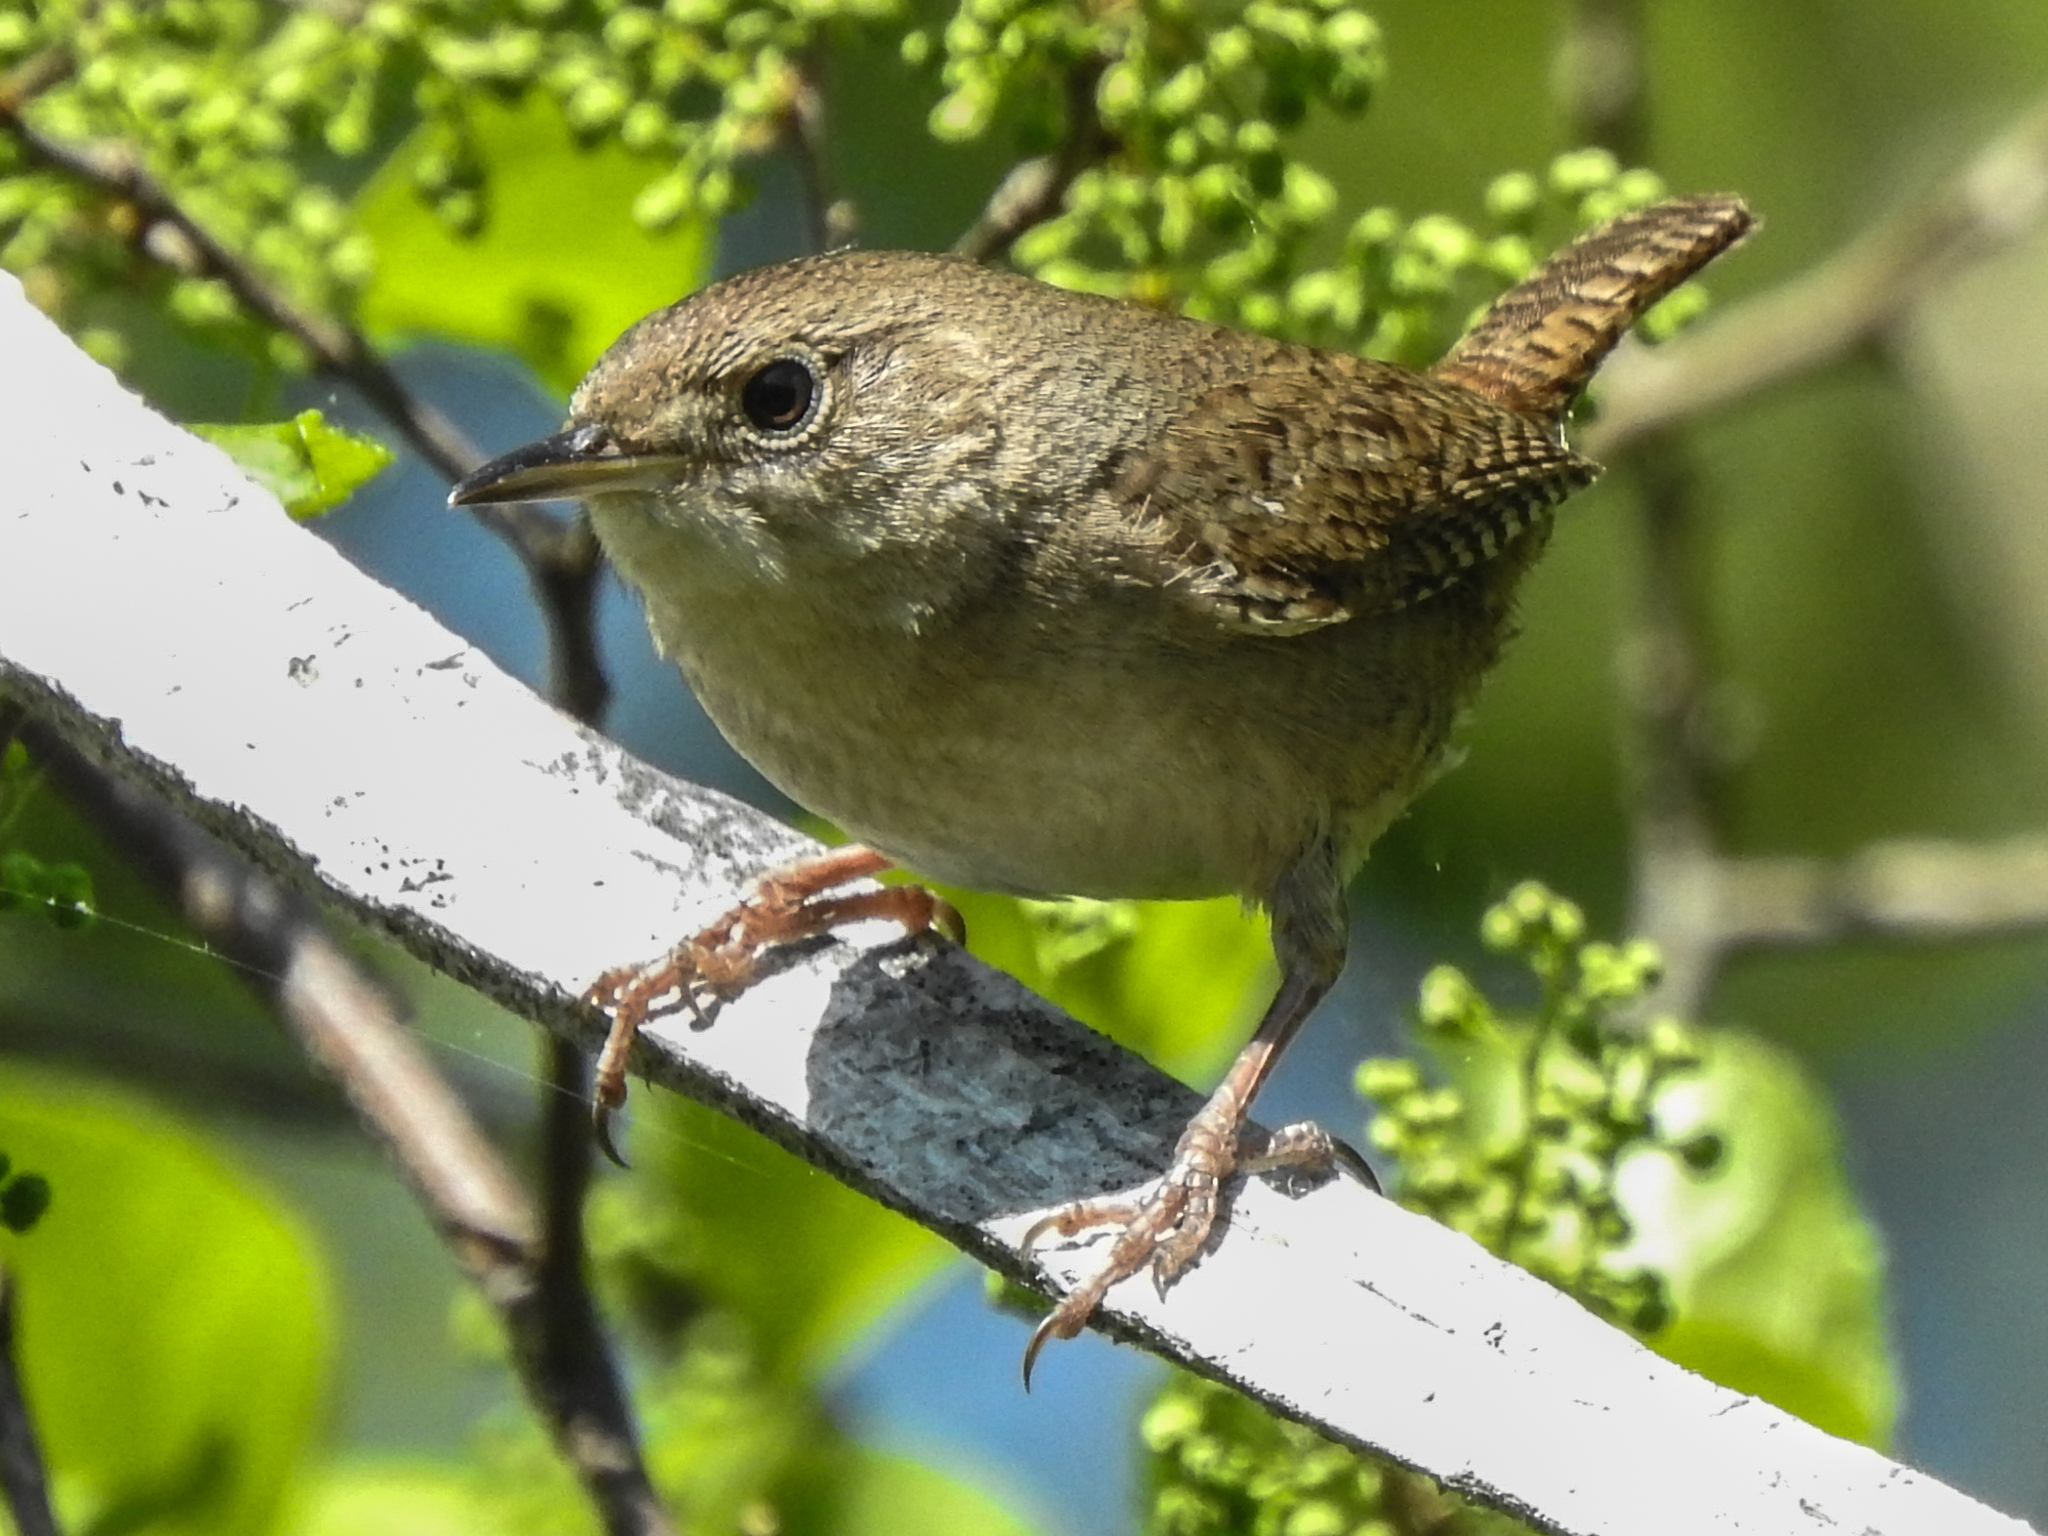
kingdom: Animalia
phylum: Chordata
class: Aves
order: Passeriformes
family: Troglodytidae
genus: Troglodytes
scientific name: Troglodytes aedon
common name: House wren
